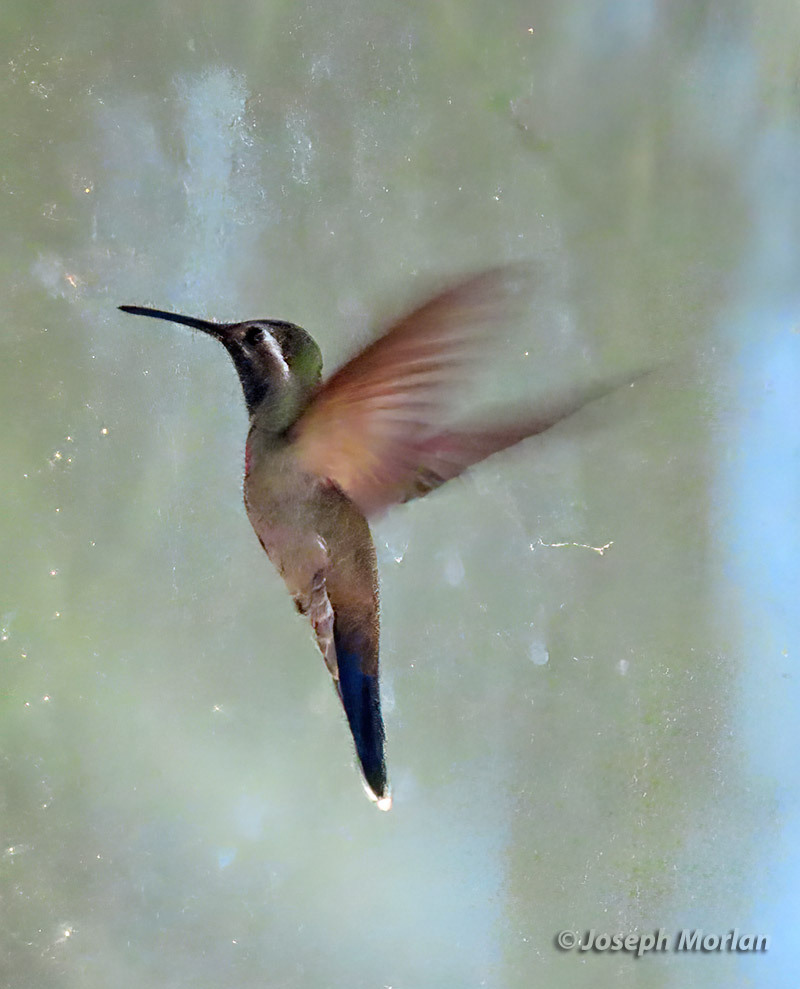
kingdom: Animalia
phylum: Chordata
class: Aves
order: Apodiformes
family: Trochilidae
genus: Lampornis
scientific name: Lampornis clemenciae
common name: Blue-throated mountaingem
